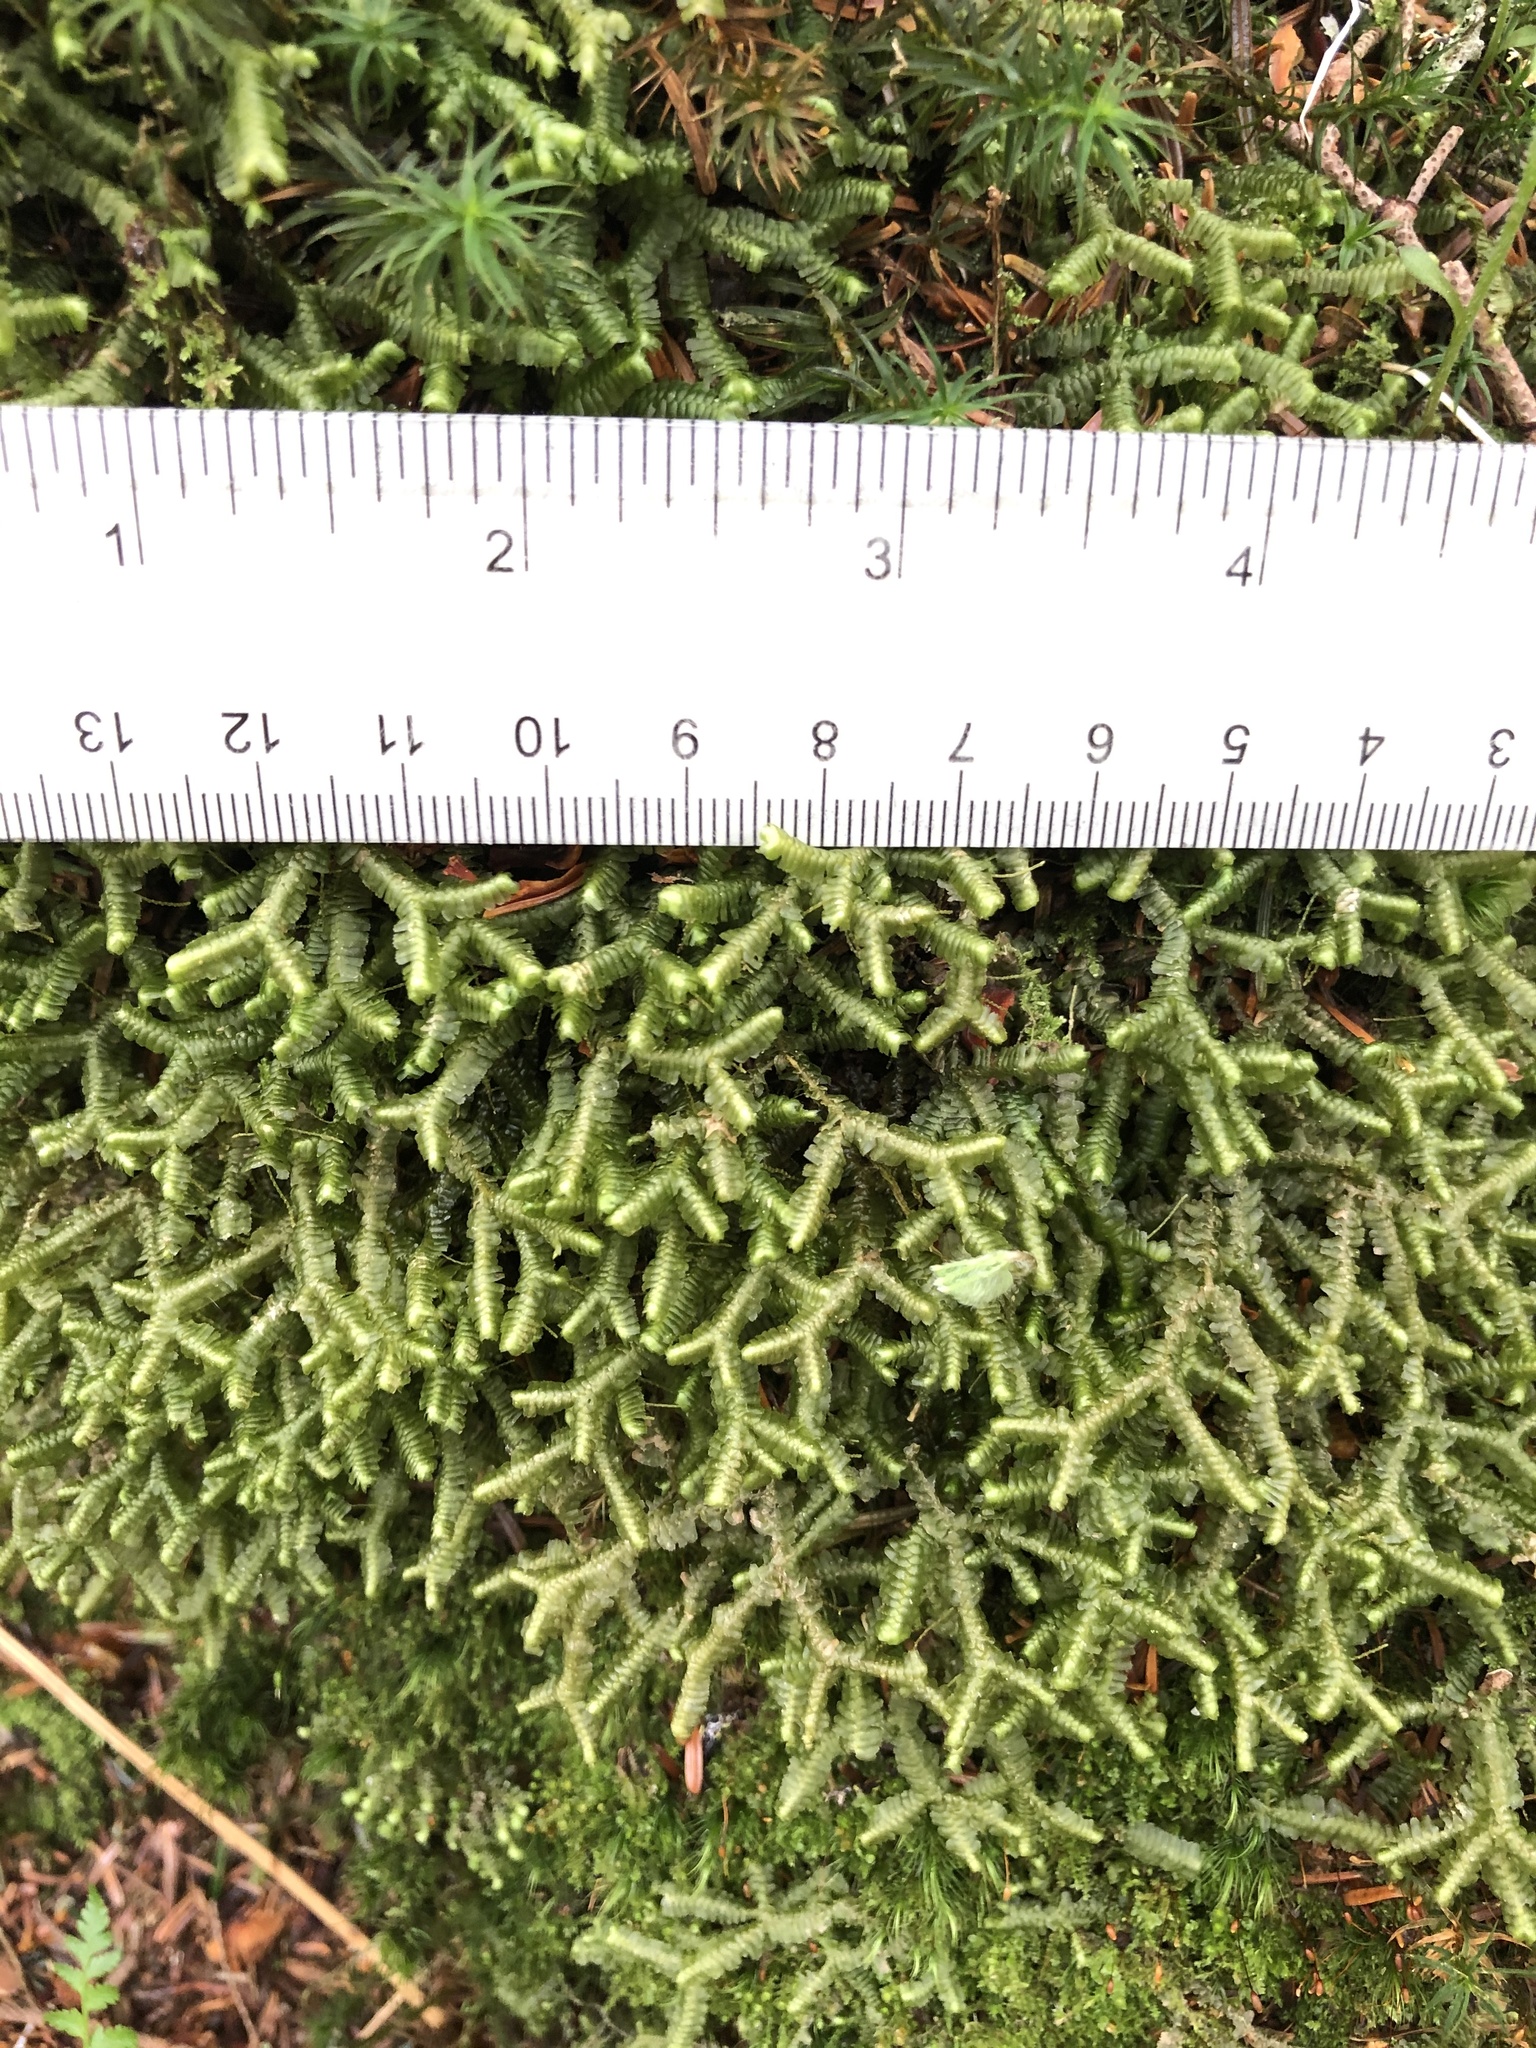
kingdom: Plantae
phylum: Marchantiophyta
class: Jungermanniopsida
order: Jungermanniales
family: Lepidoziaceae
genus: Bazzania
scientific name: Bazzania trilobata
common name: Three-lobed whipwort
